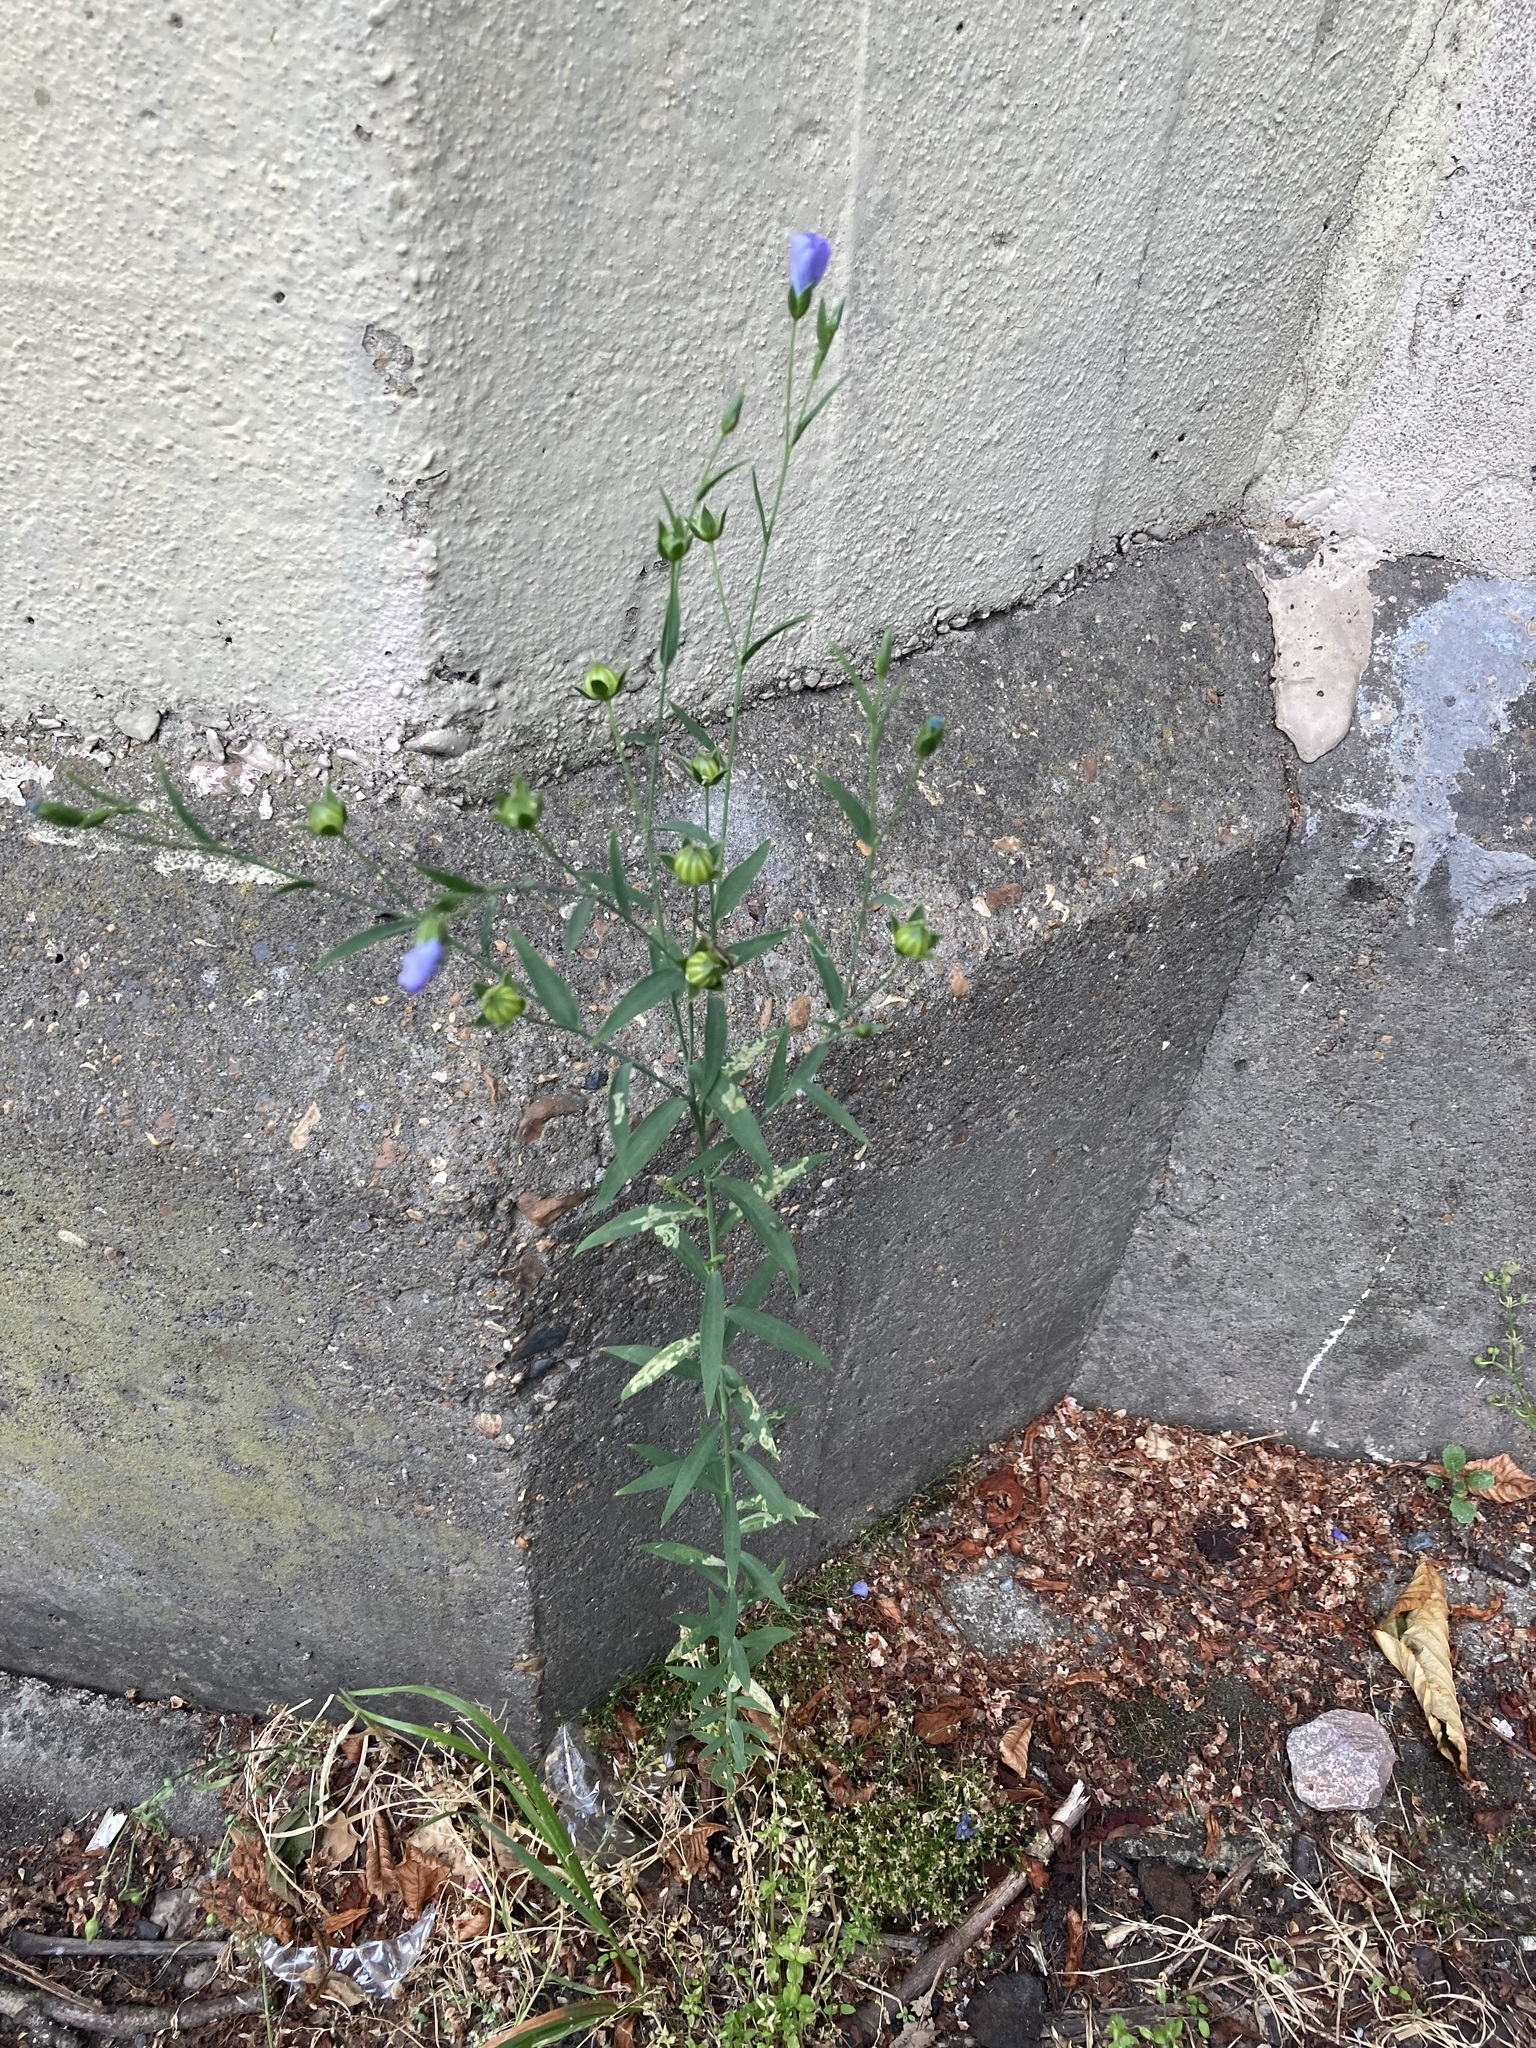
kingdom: Plantae
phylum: Tracheophyta
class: Magnoliopsida
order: Malpighiales
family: Linaceae
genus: Linum
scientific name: Linum
